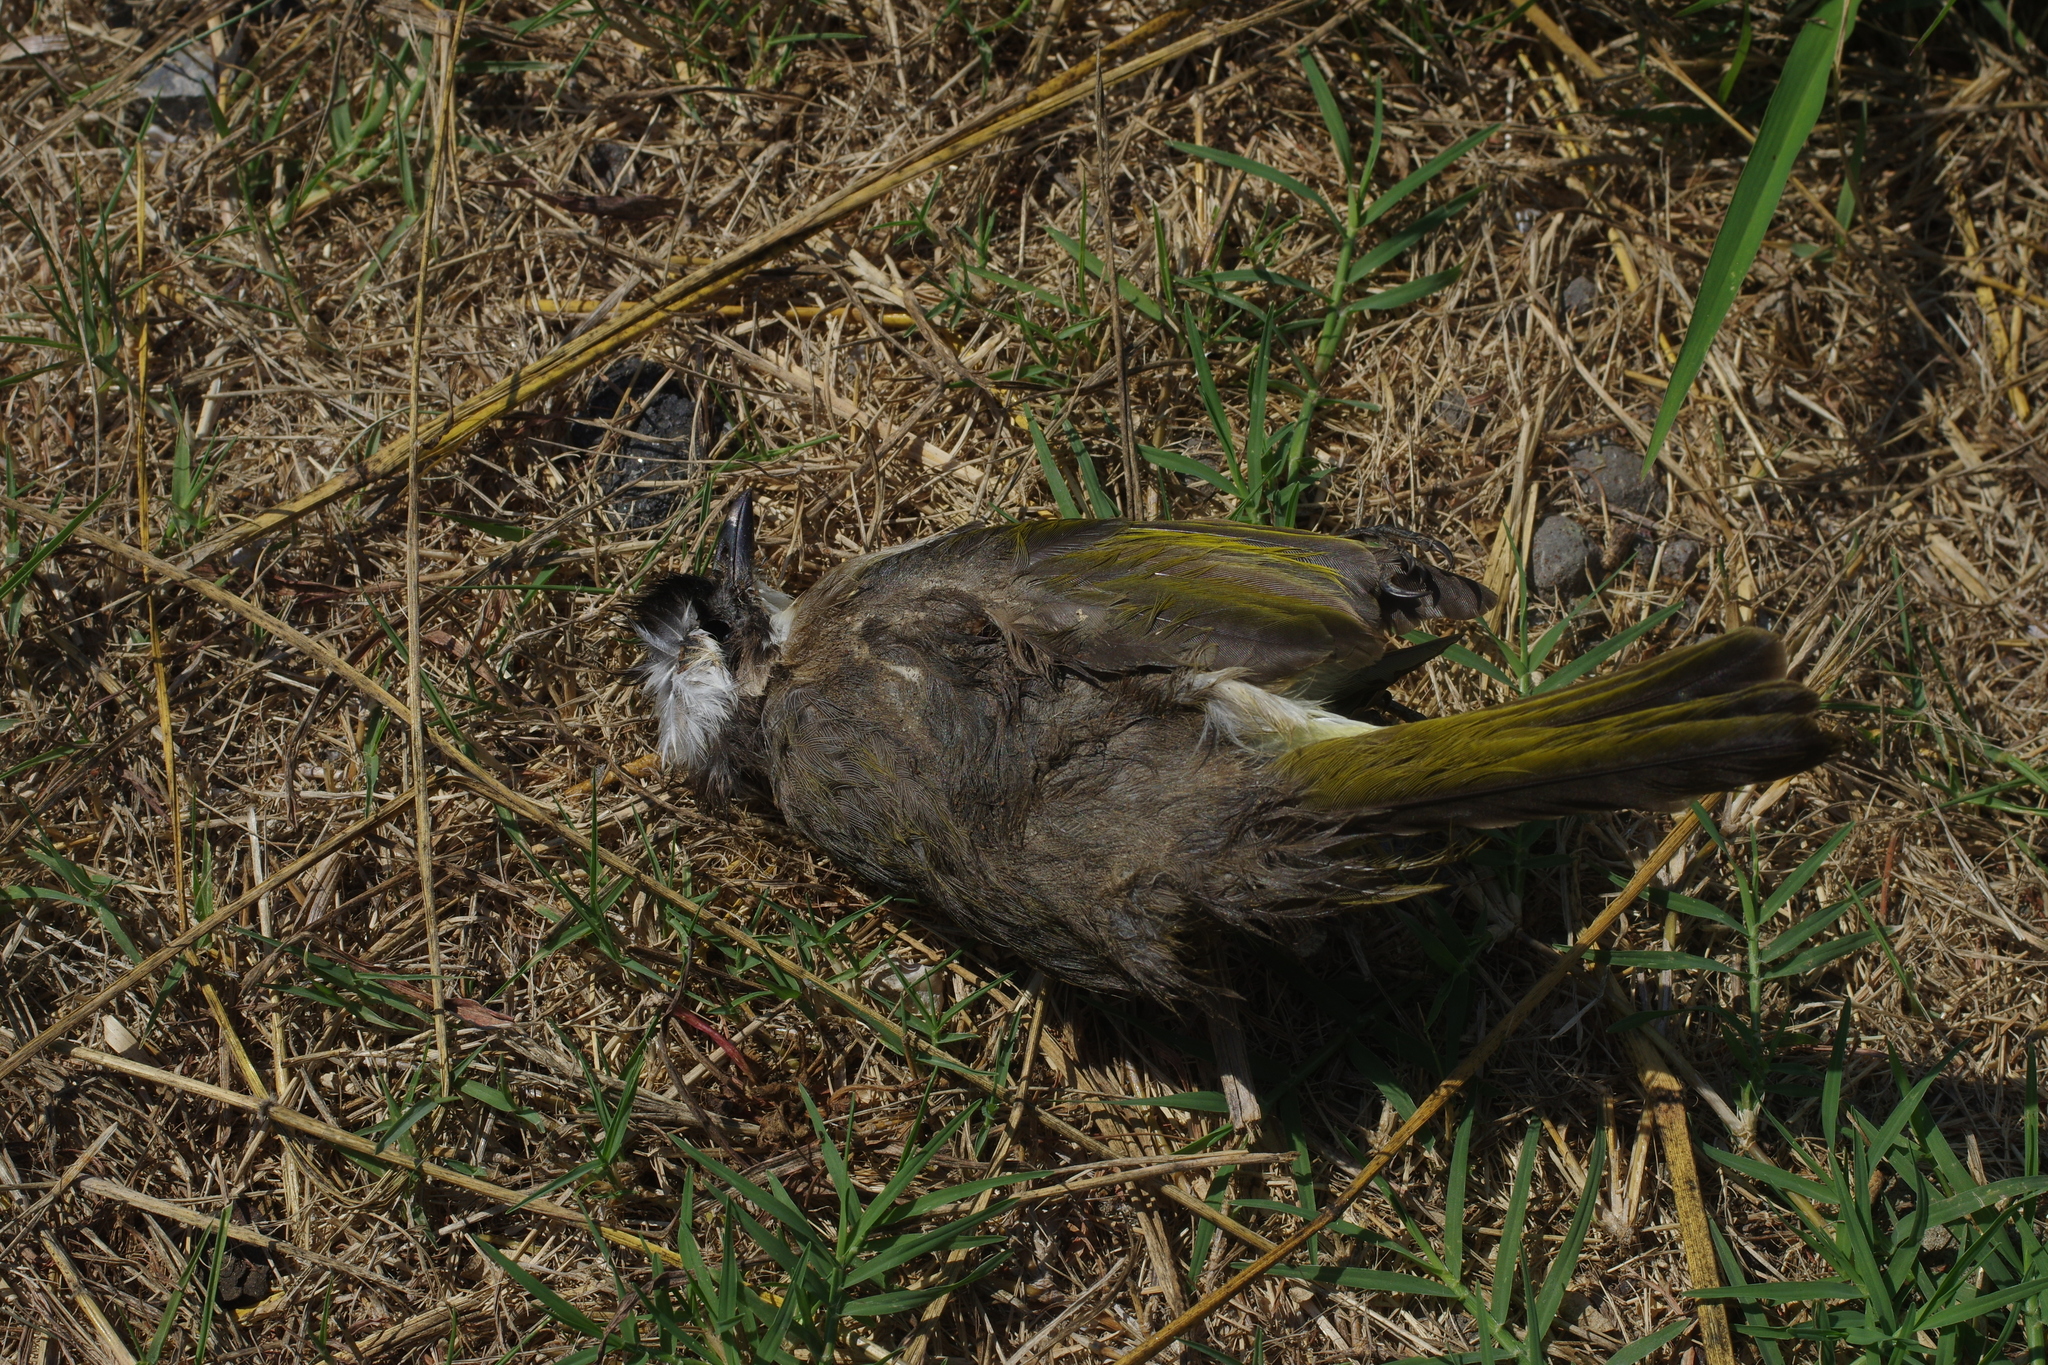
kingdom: Animalia
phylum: Chordata
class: Aves
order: Passeriformes
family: Pycnonotidae
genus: Pycnonotus
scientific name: Pycnonotus sinensis
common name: Light-vented bulbul
